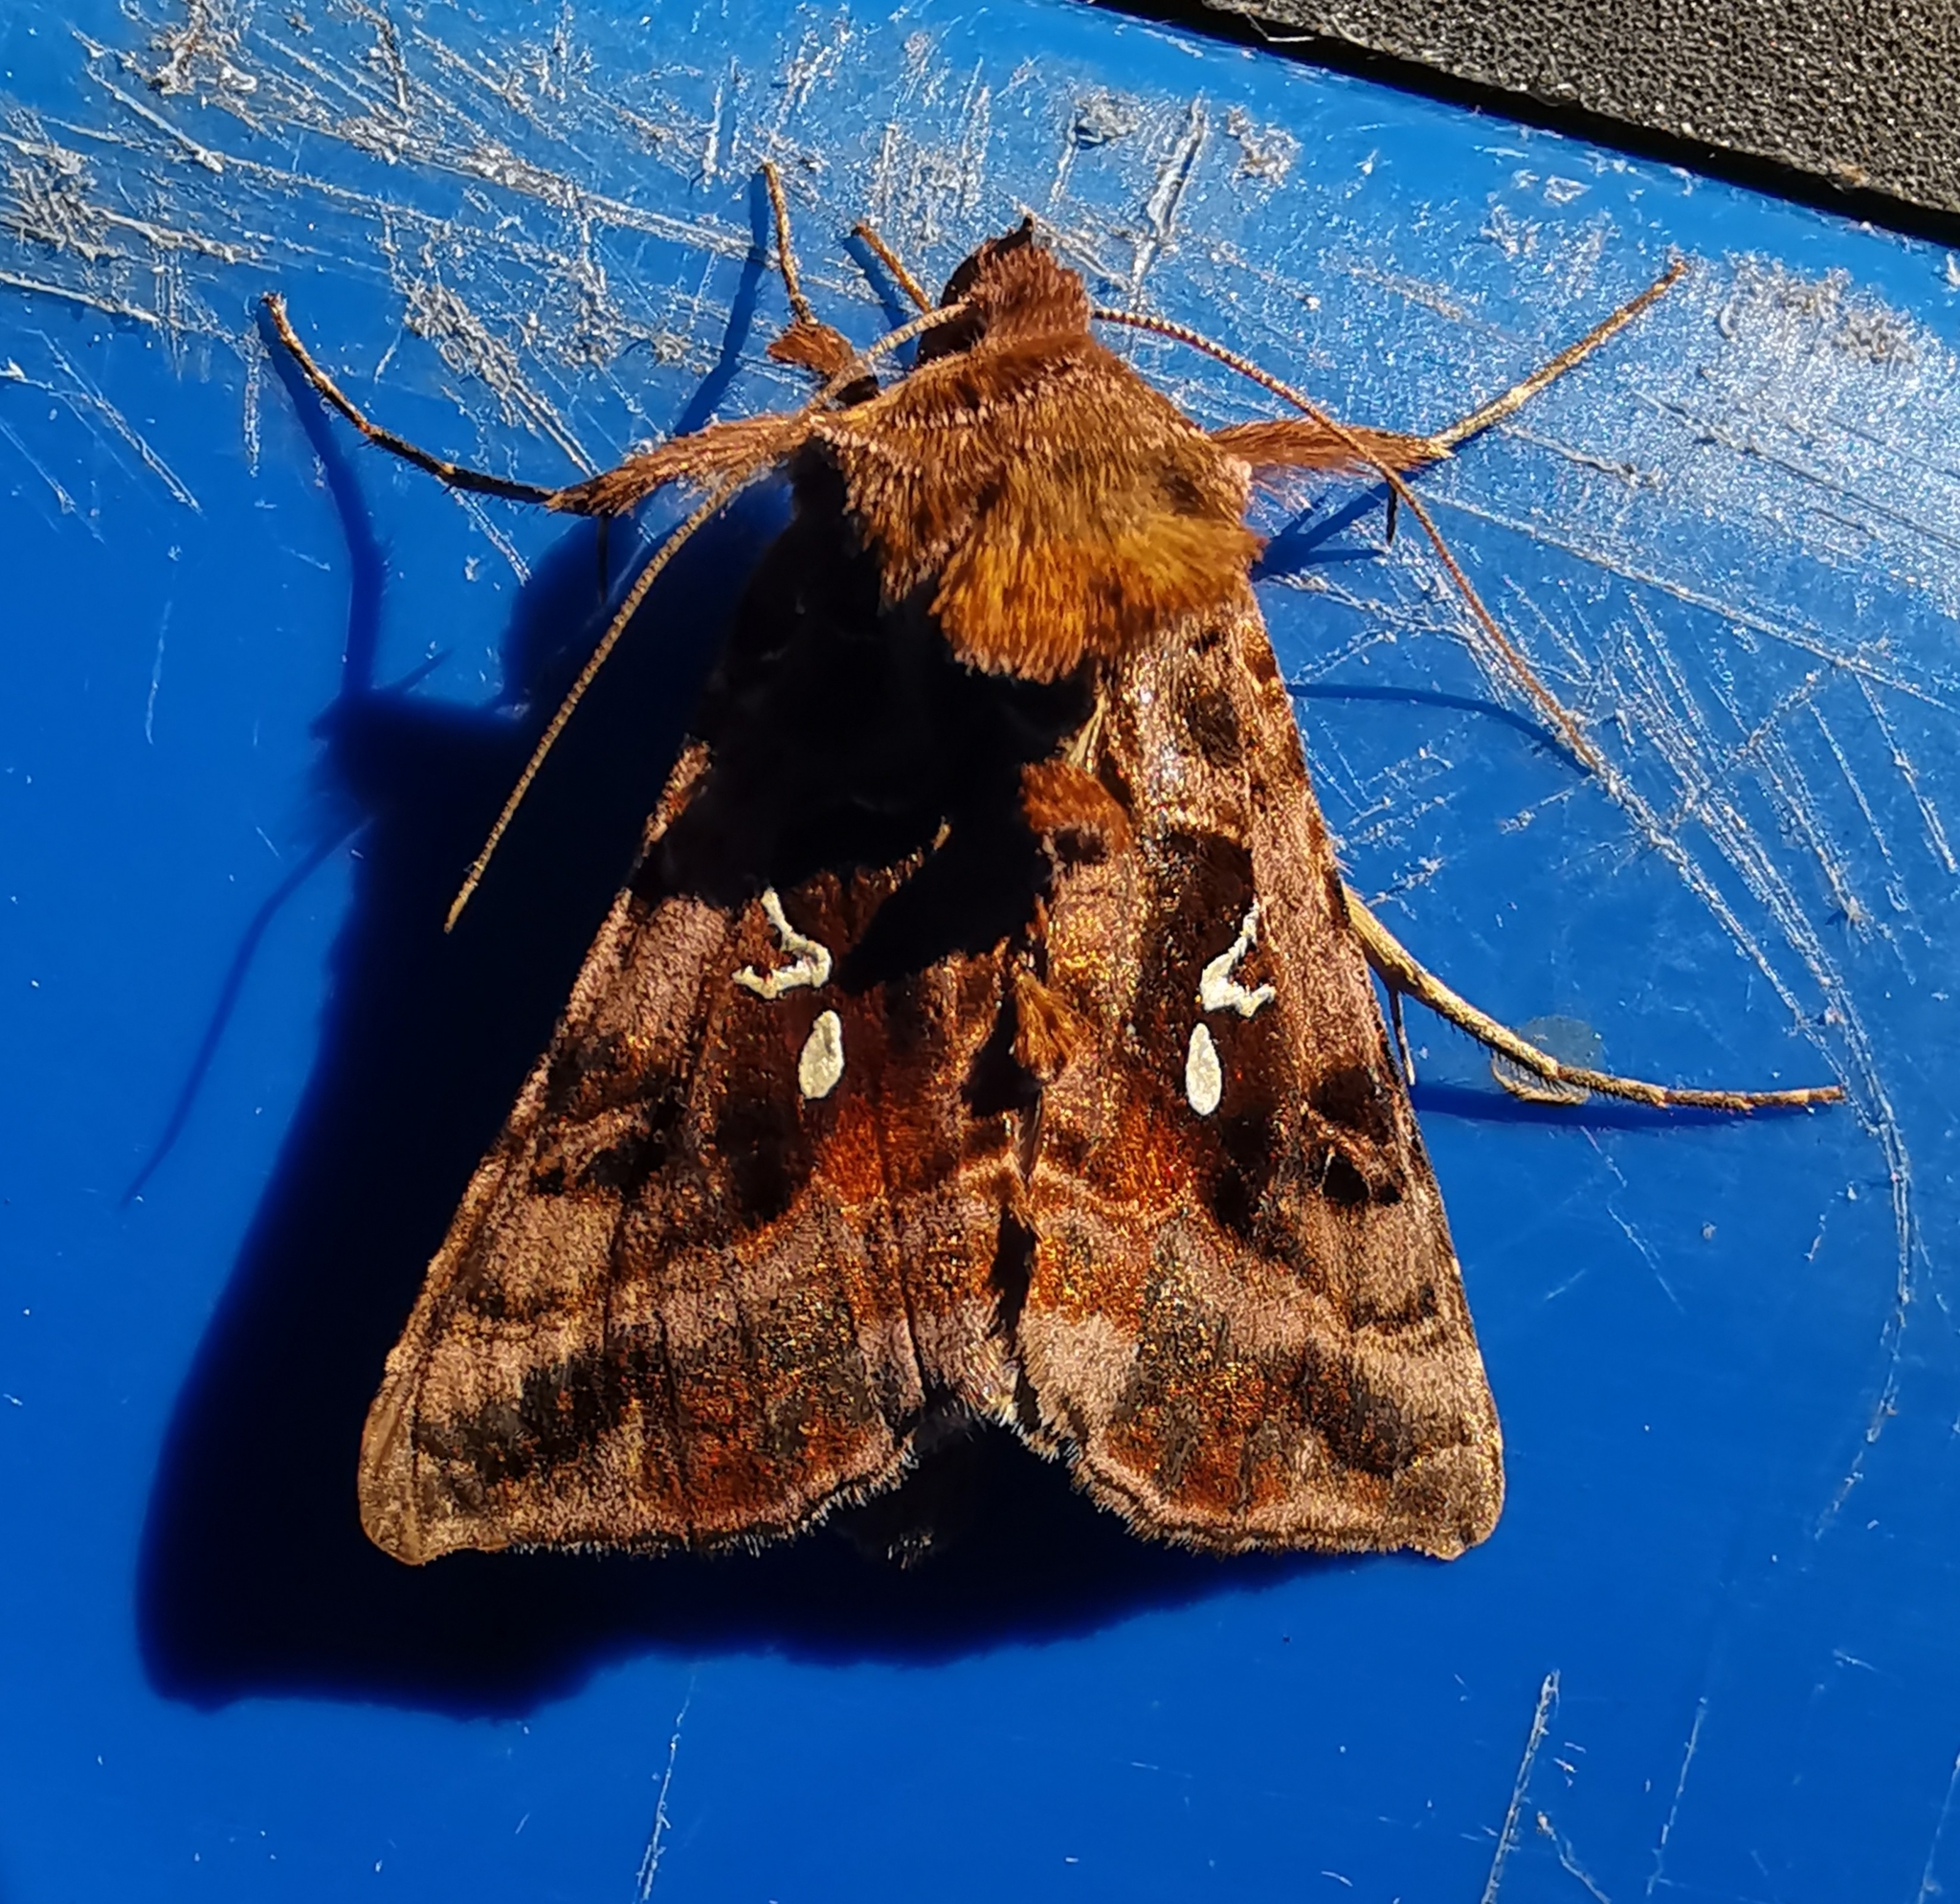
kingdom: Animalia
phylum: Arthropoda
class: Insecta
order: Lepidoptera
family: Noctuidae
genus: Autographa
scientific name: Autographa pulchrina
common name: Beautiful golden y
